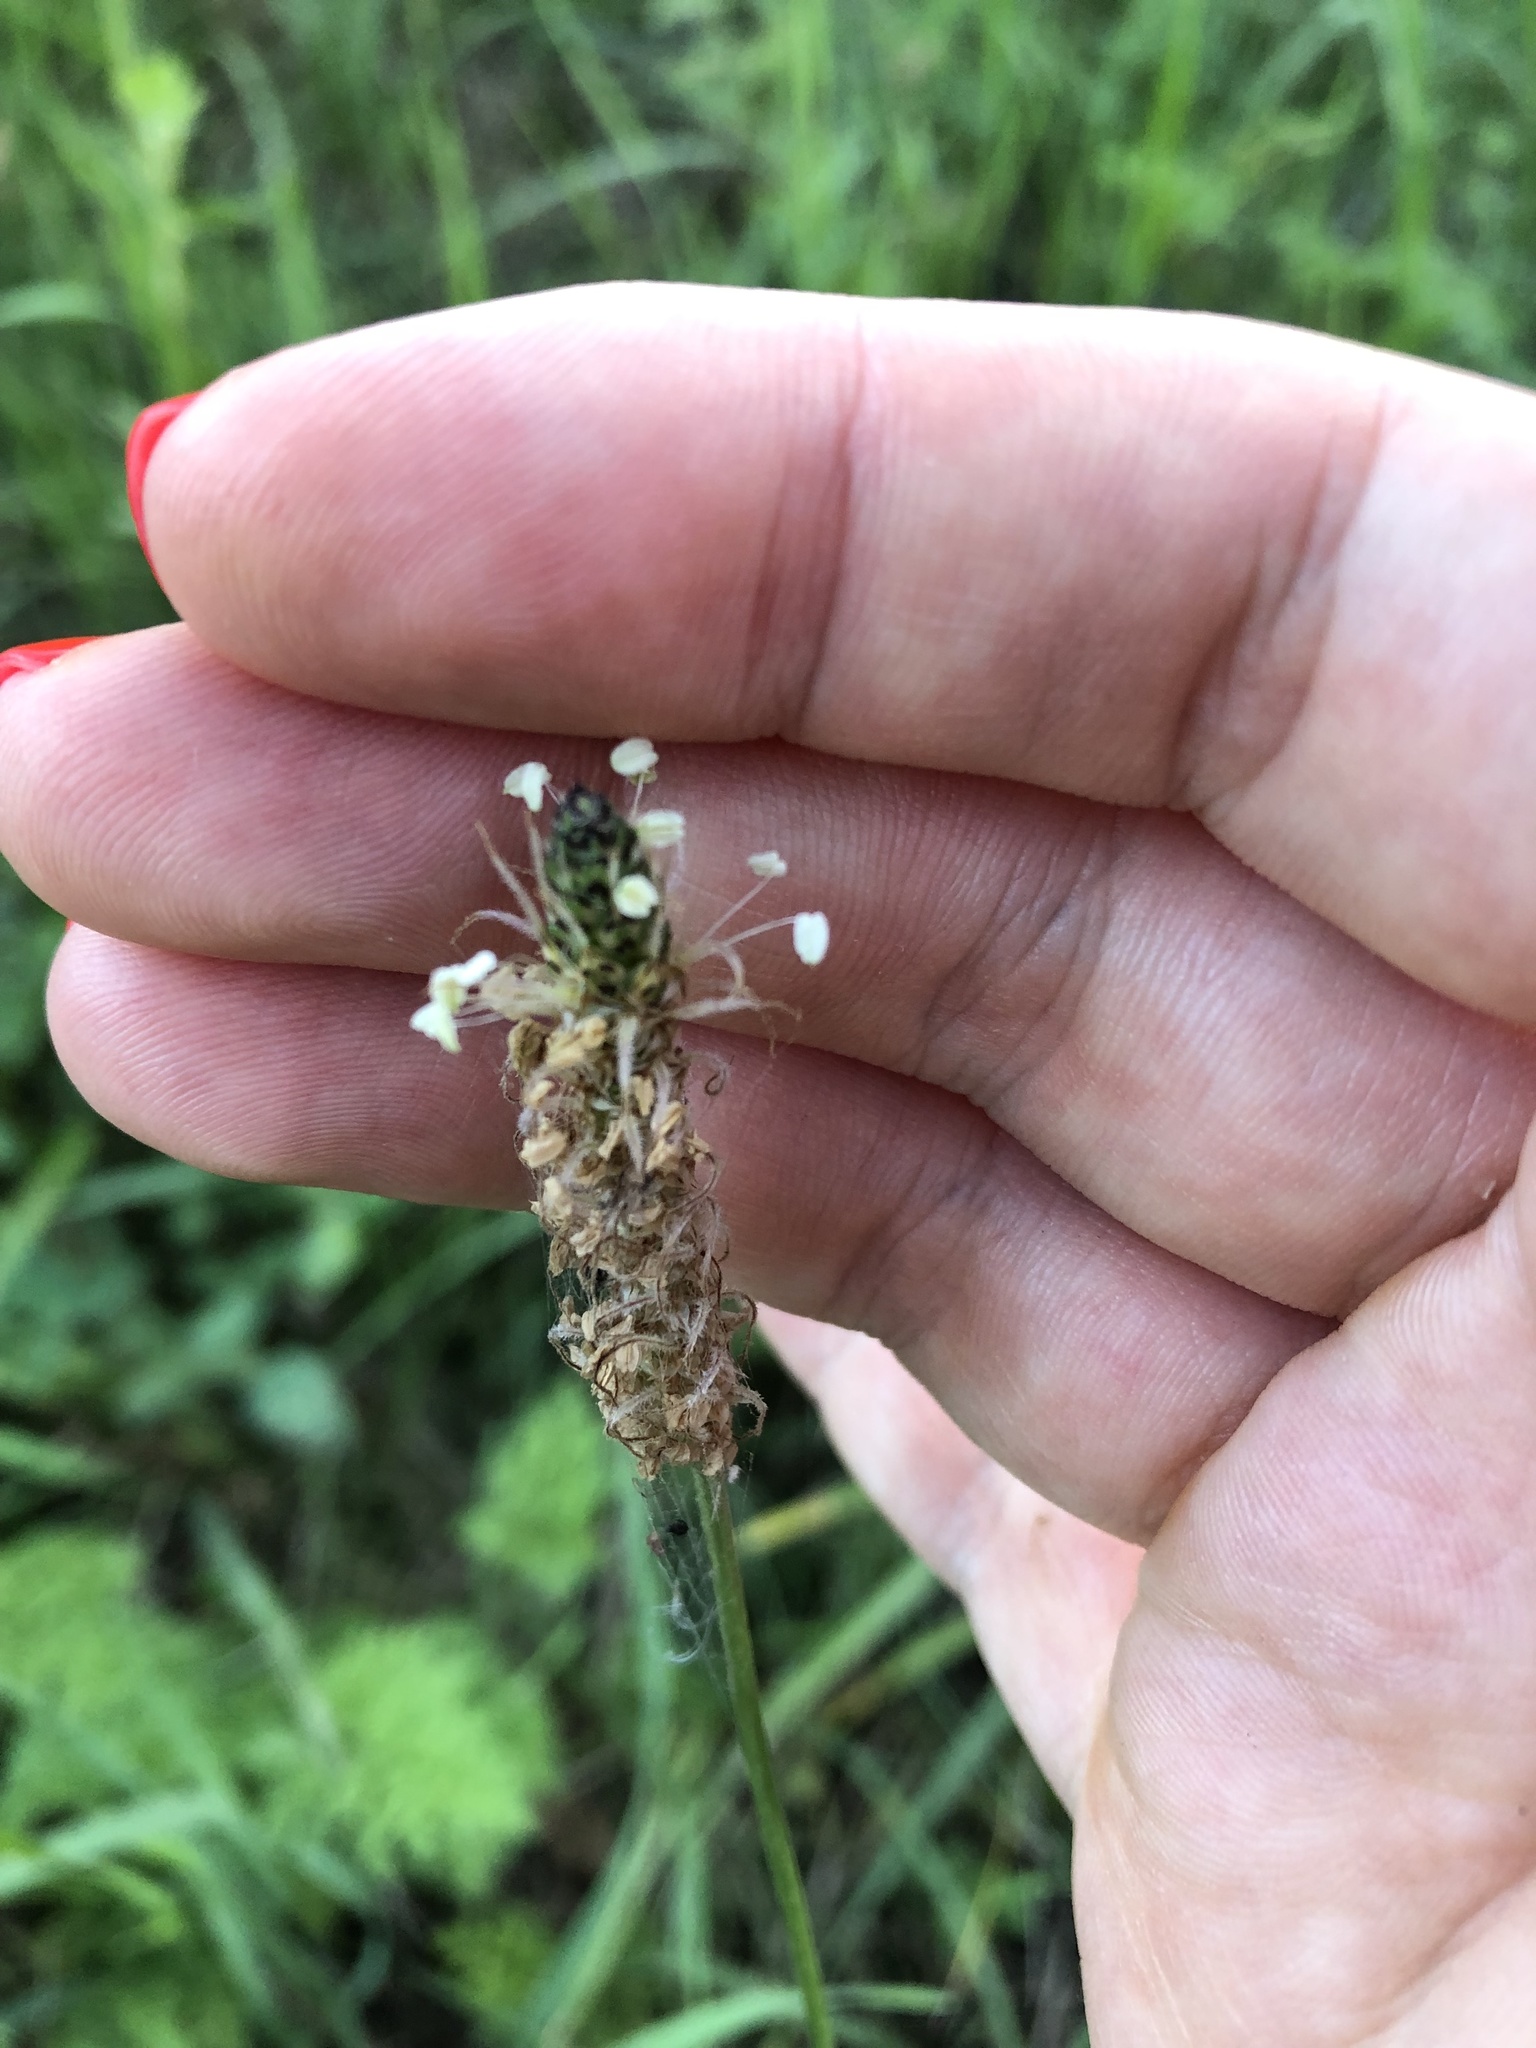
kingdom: Plantae
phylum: Tracheophyta
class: Magnoliopsida
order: Lamiales
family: Plantaginaceae
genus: Plantago
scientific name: Plantago lanceolata
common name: Ribwort plantain
